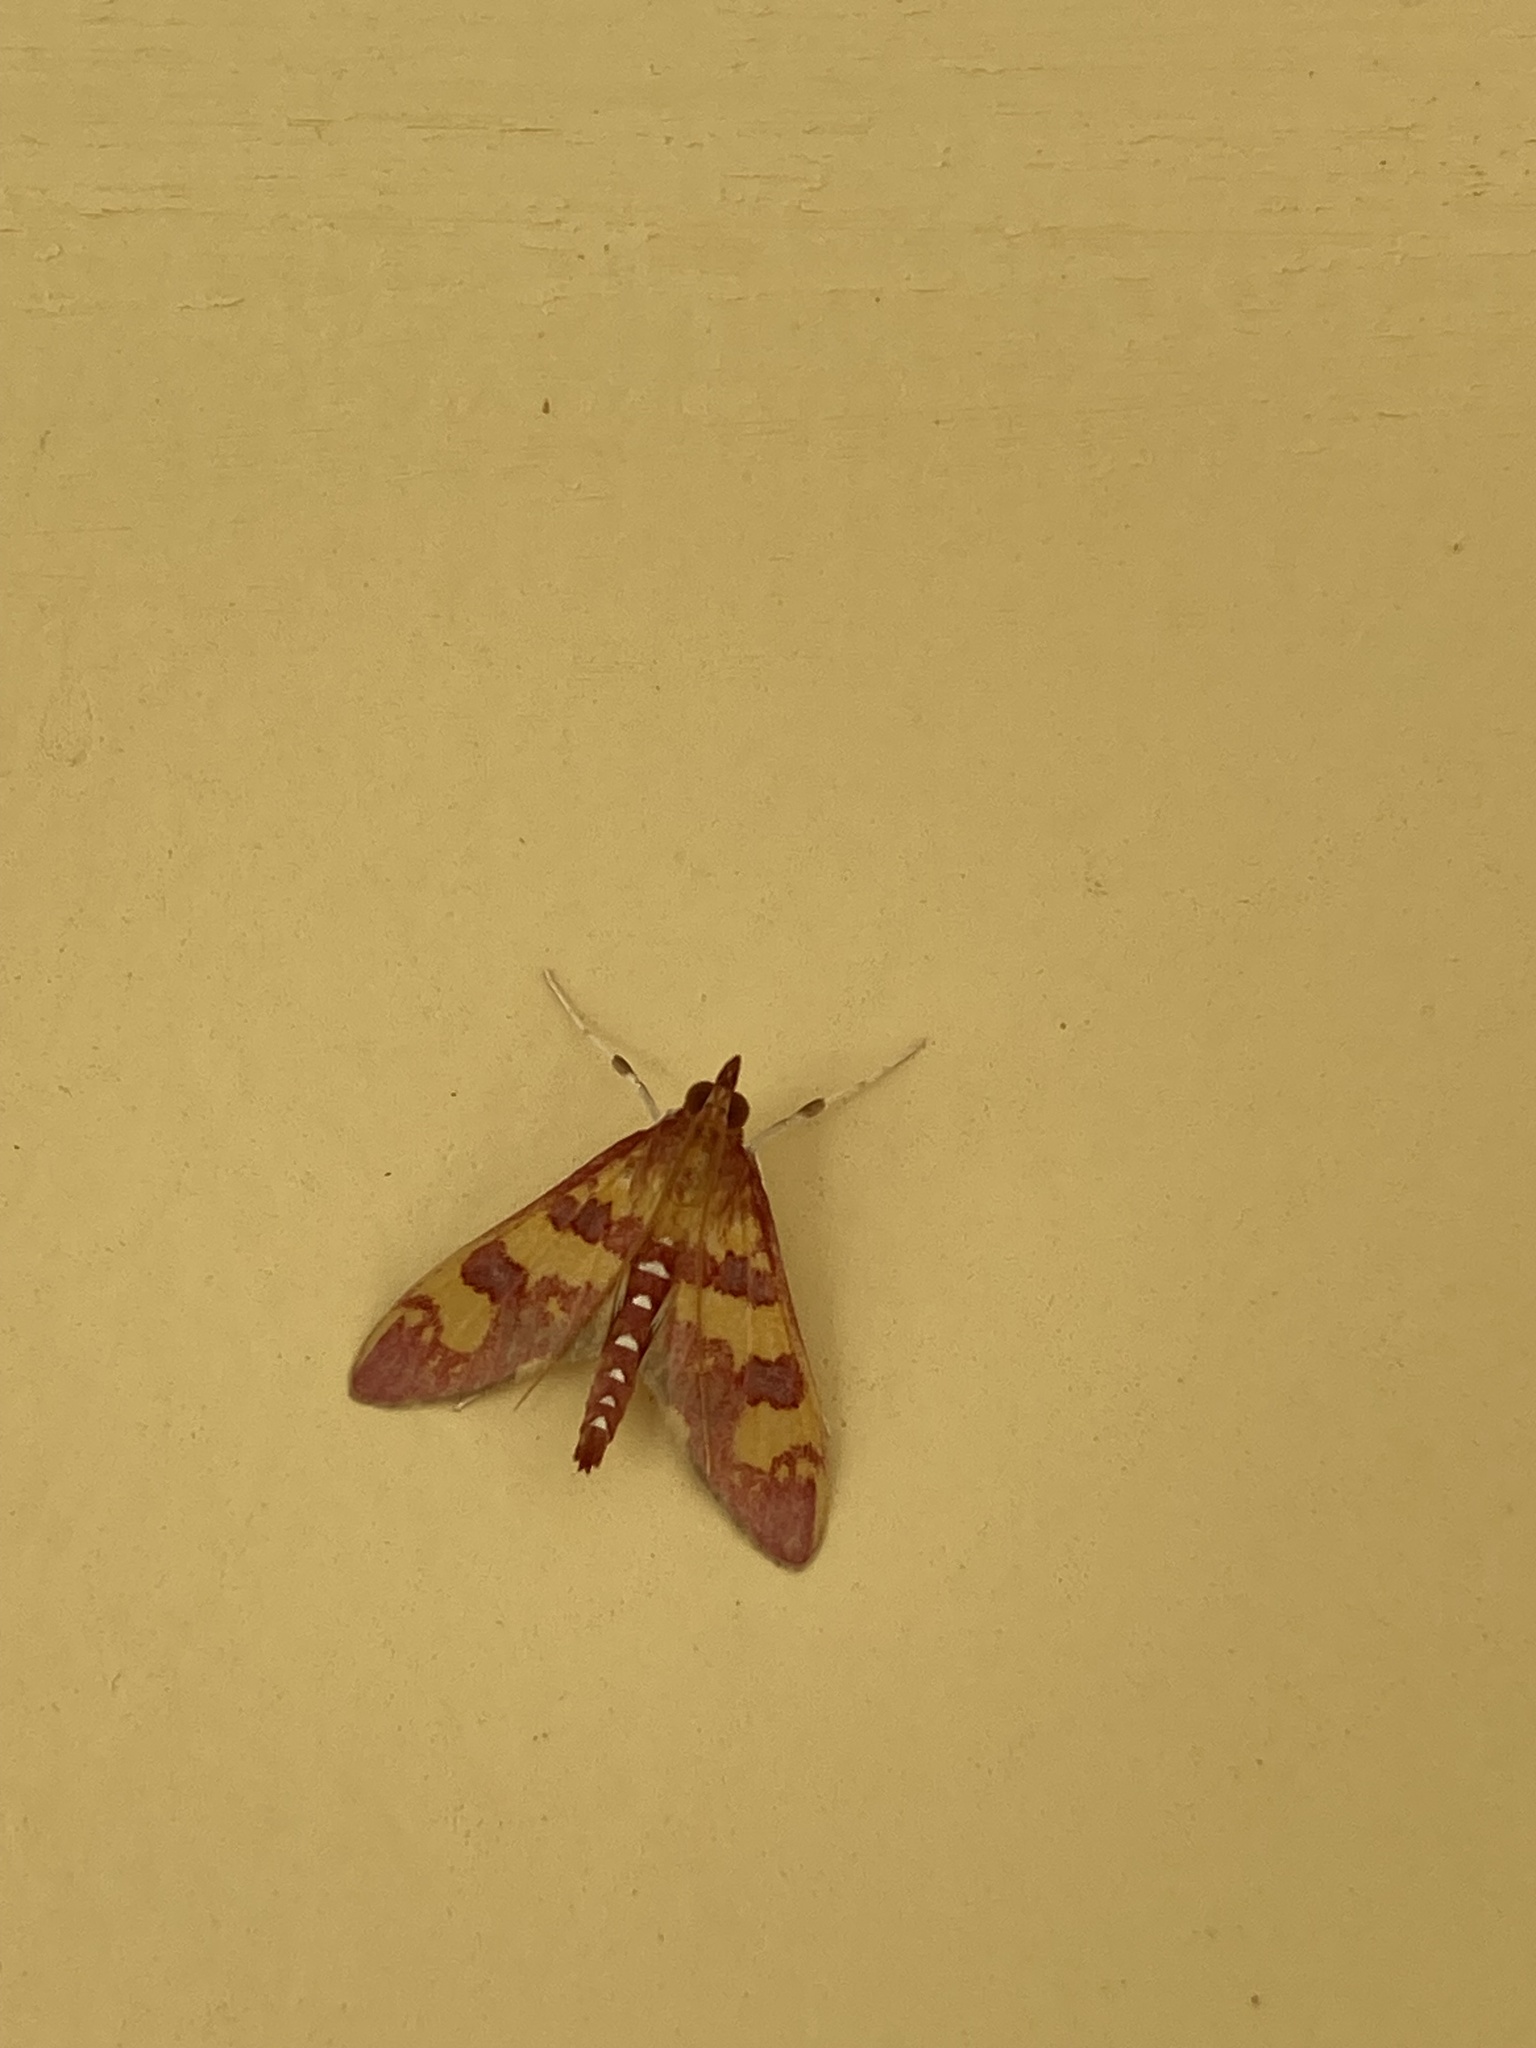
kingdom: Animalia
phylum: Arthropoda
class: Insecta
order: Lepidoptera
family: Crambidae
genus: Ischnurges
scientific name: Ischnurges Stenochora lancinalis
